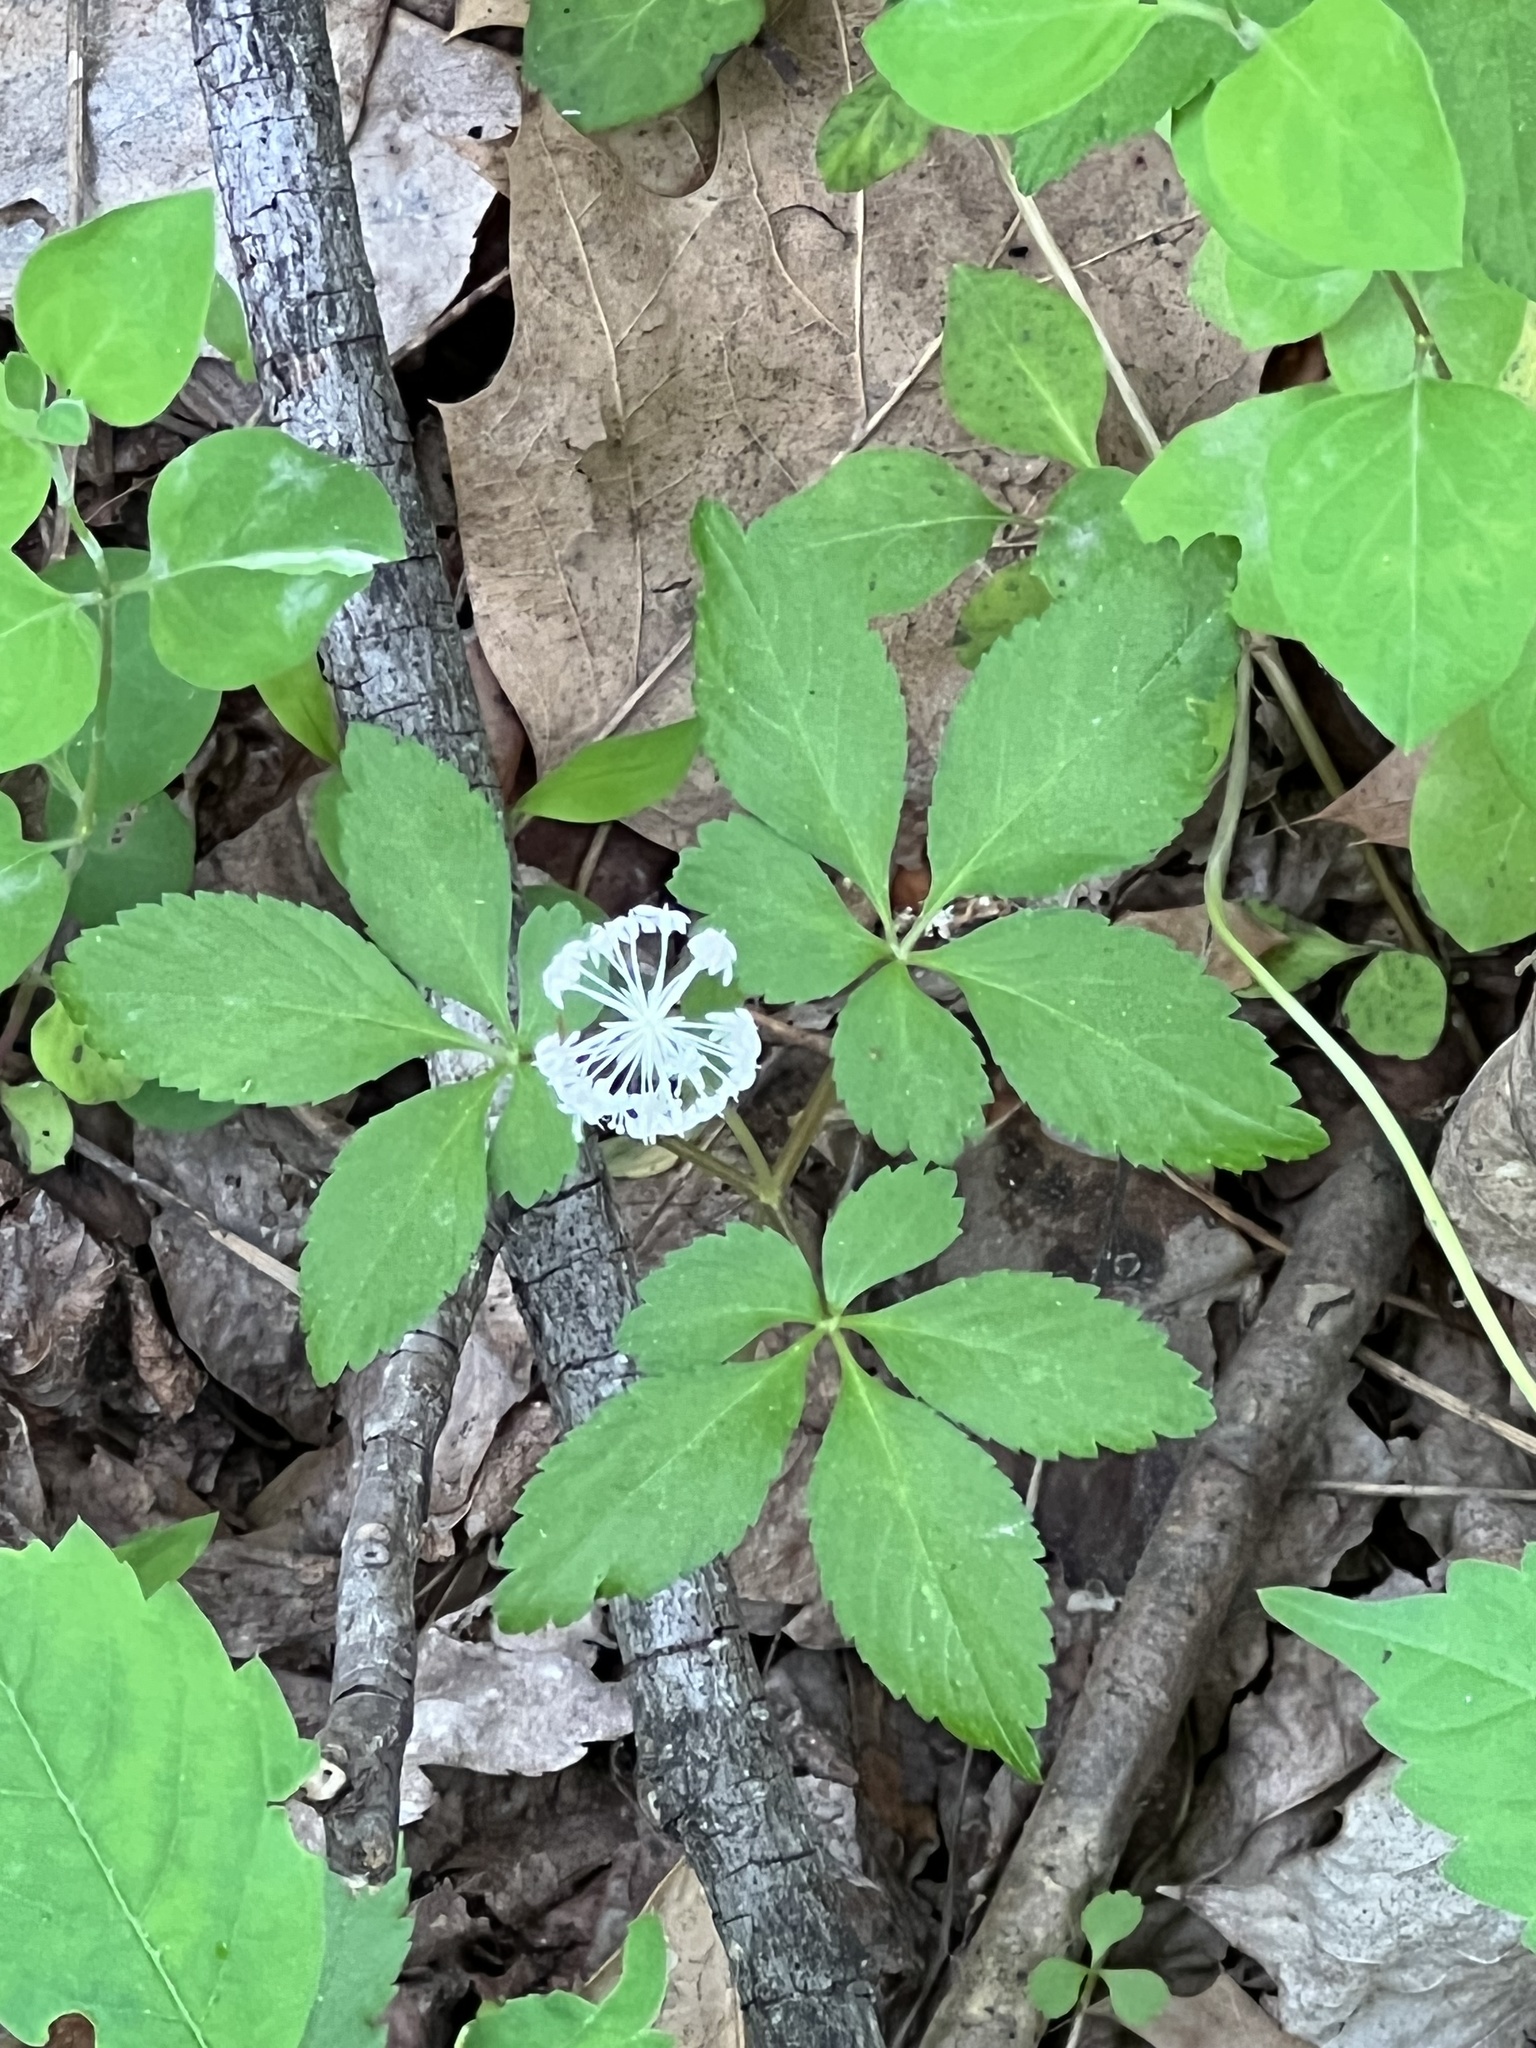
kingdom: Plantae
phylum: Tracheophyta
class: Magnoliopsida
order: Apiales
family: Araliaceae
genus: Panax
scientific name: Panax trifolius
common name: Dwarf ginseng
